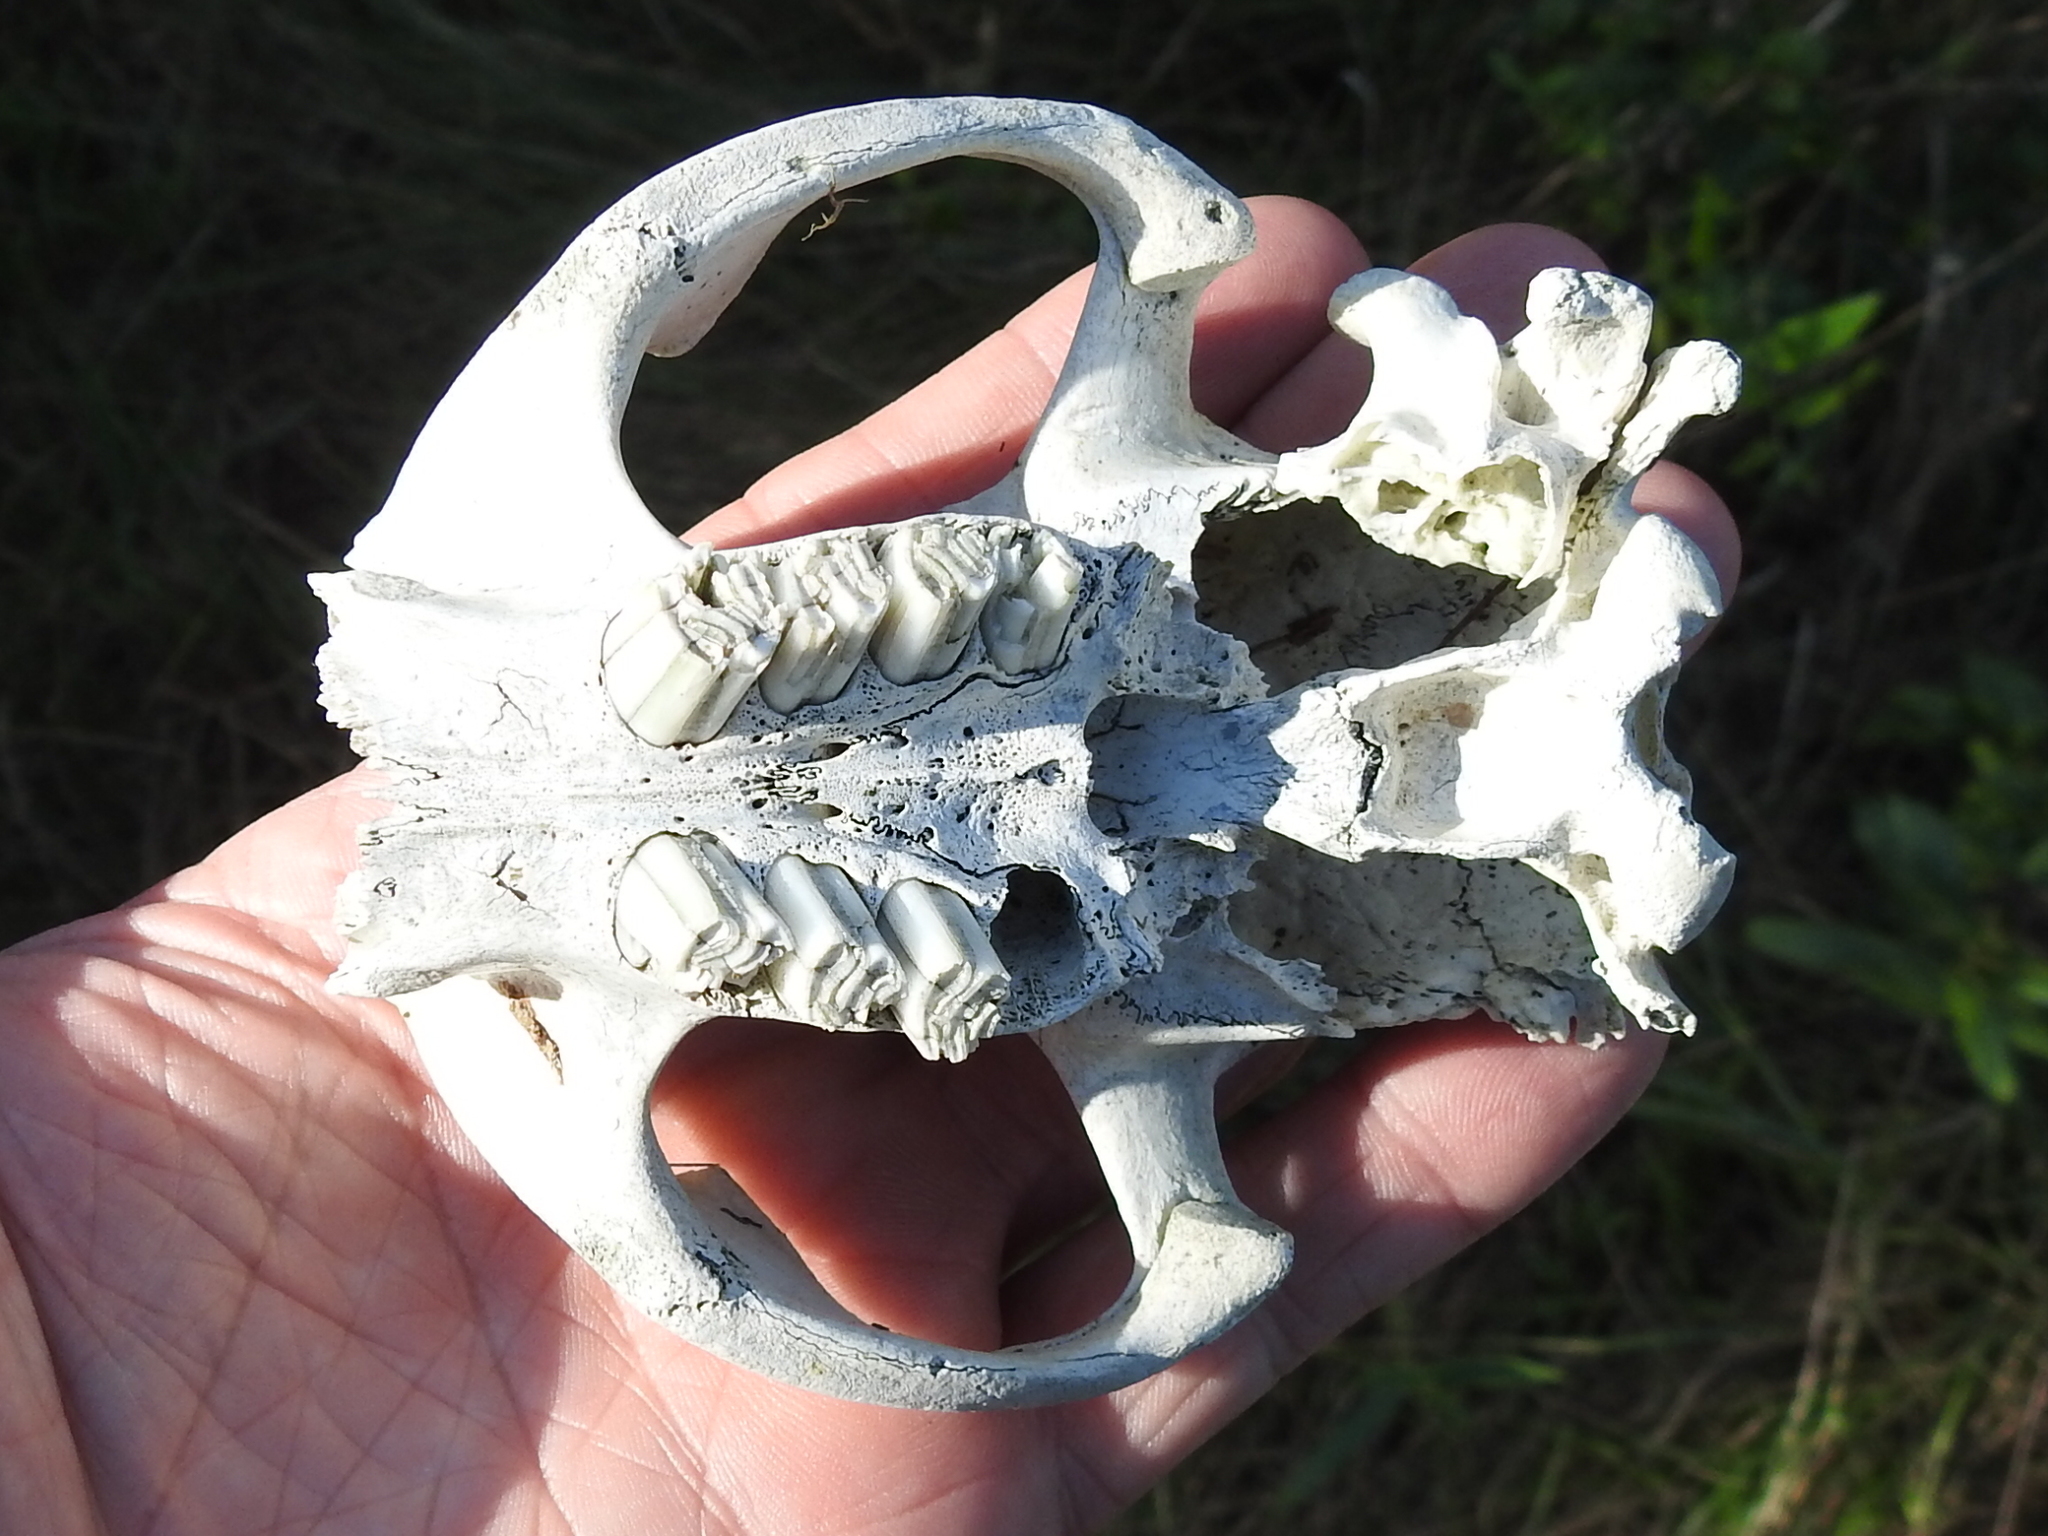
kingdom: Animalia
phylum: Chordata
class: Mammalia
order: Rodentia
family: Castoridae
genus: Castor
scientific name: Castor canadensis
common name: American beaver
